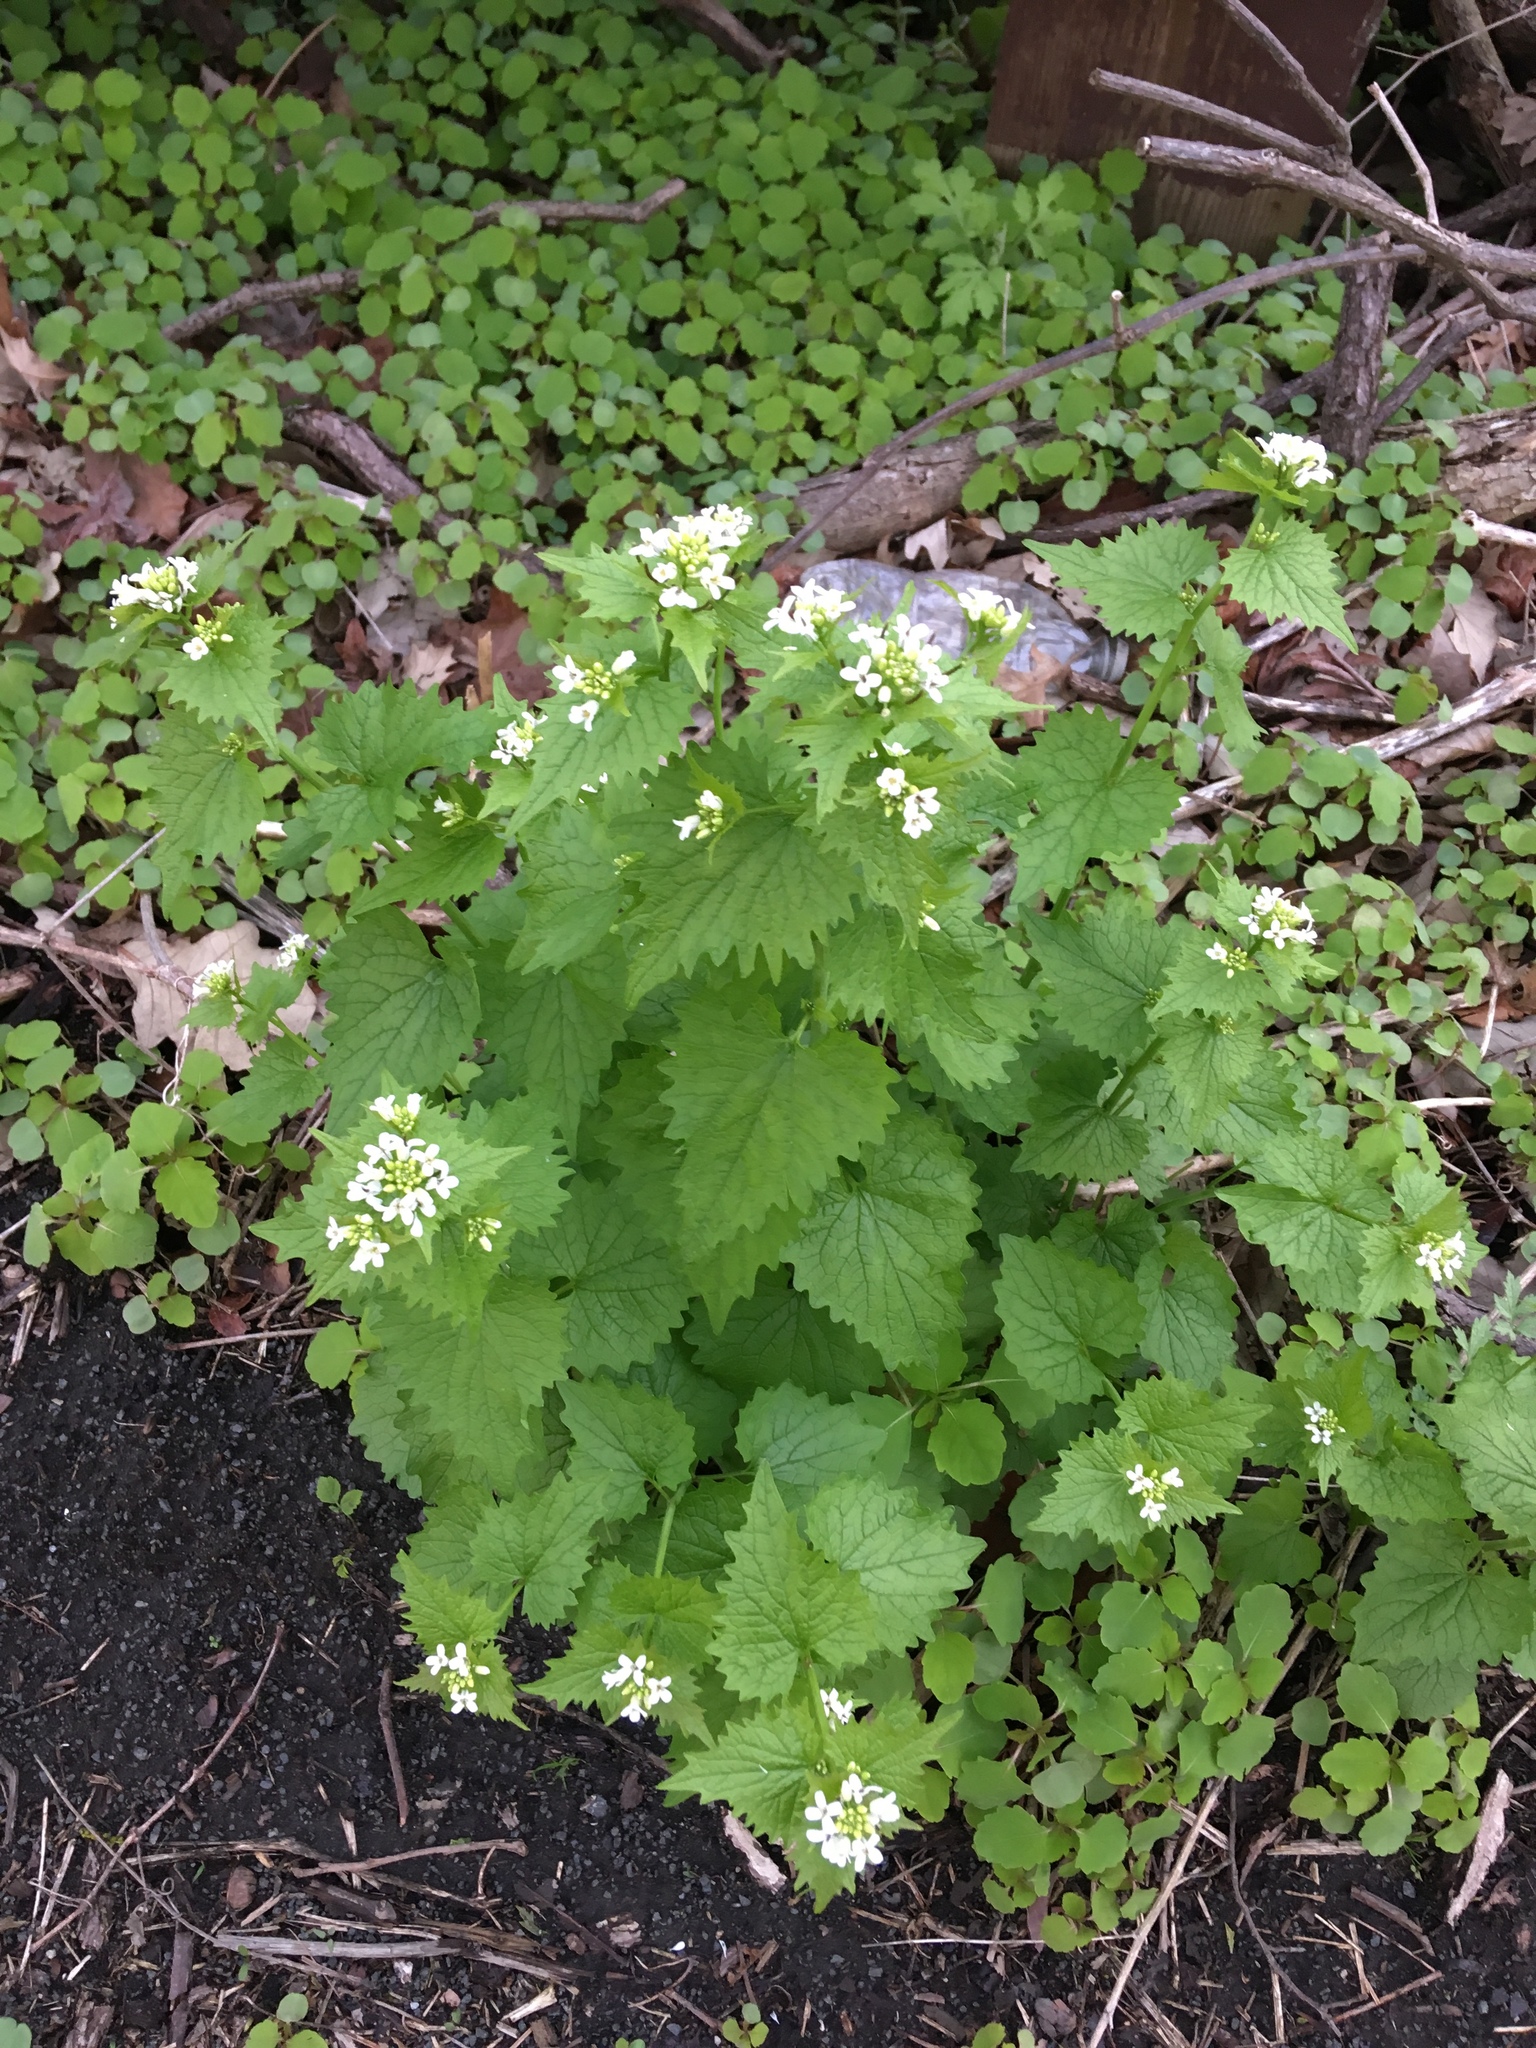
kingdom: Plantae
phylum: Tracheophyta
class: Magnoliopsida
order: Brassicales
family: Brassicaceae
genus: Alliaria
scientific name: Alliaria petiolata
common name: Garlic mustard
